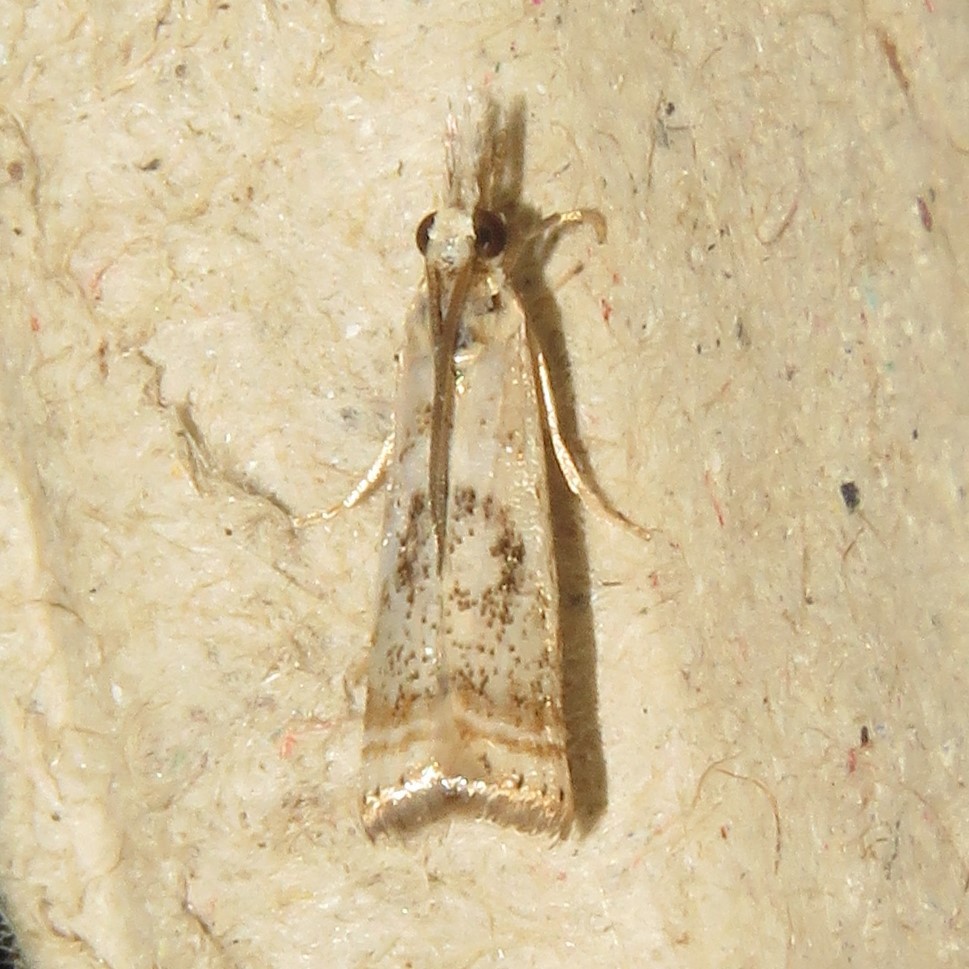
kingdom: Animalia
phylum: Arthropoda
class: Insecta
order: Lepidoptera
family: Crambidae
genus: Microcrambus
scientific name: Microcrambus elegans
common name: Elegant grass-veneer
